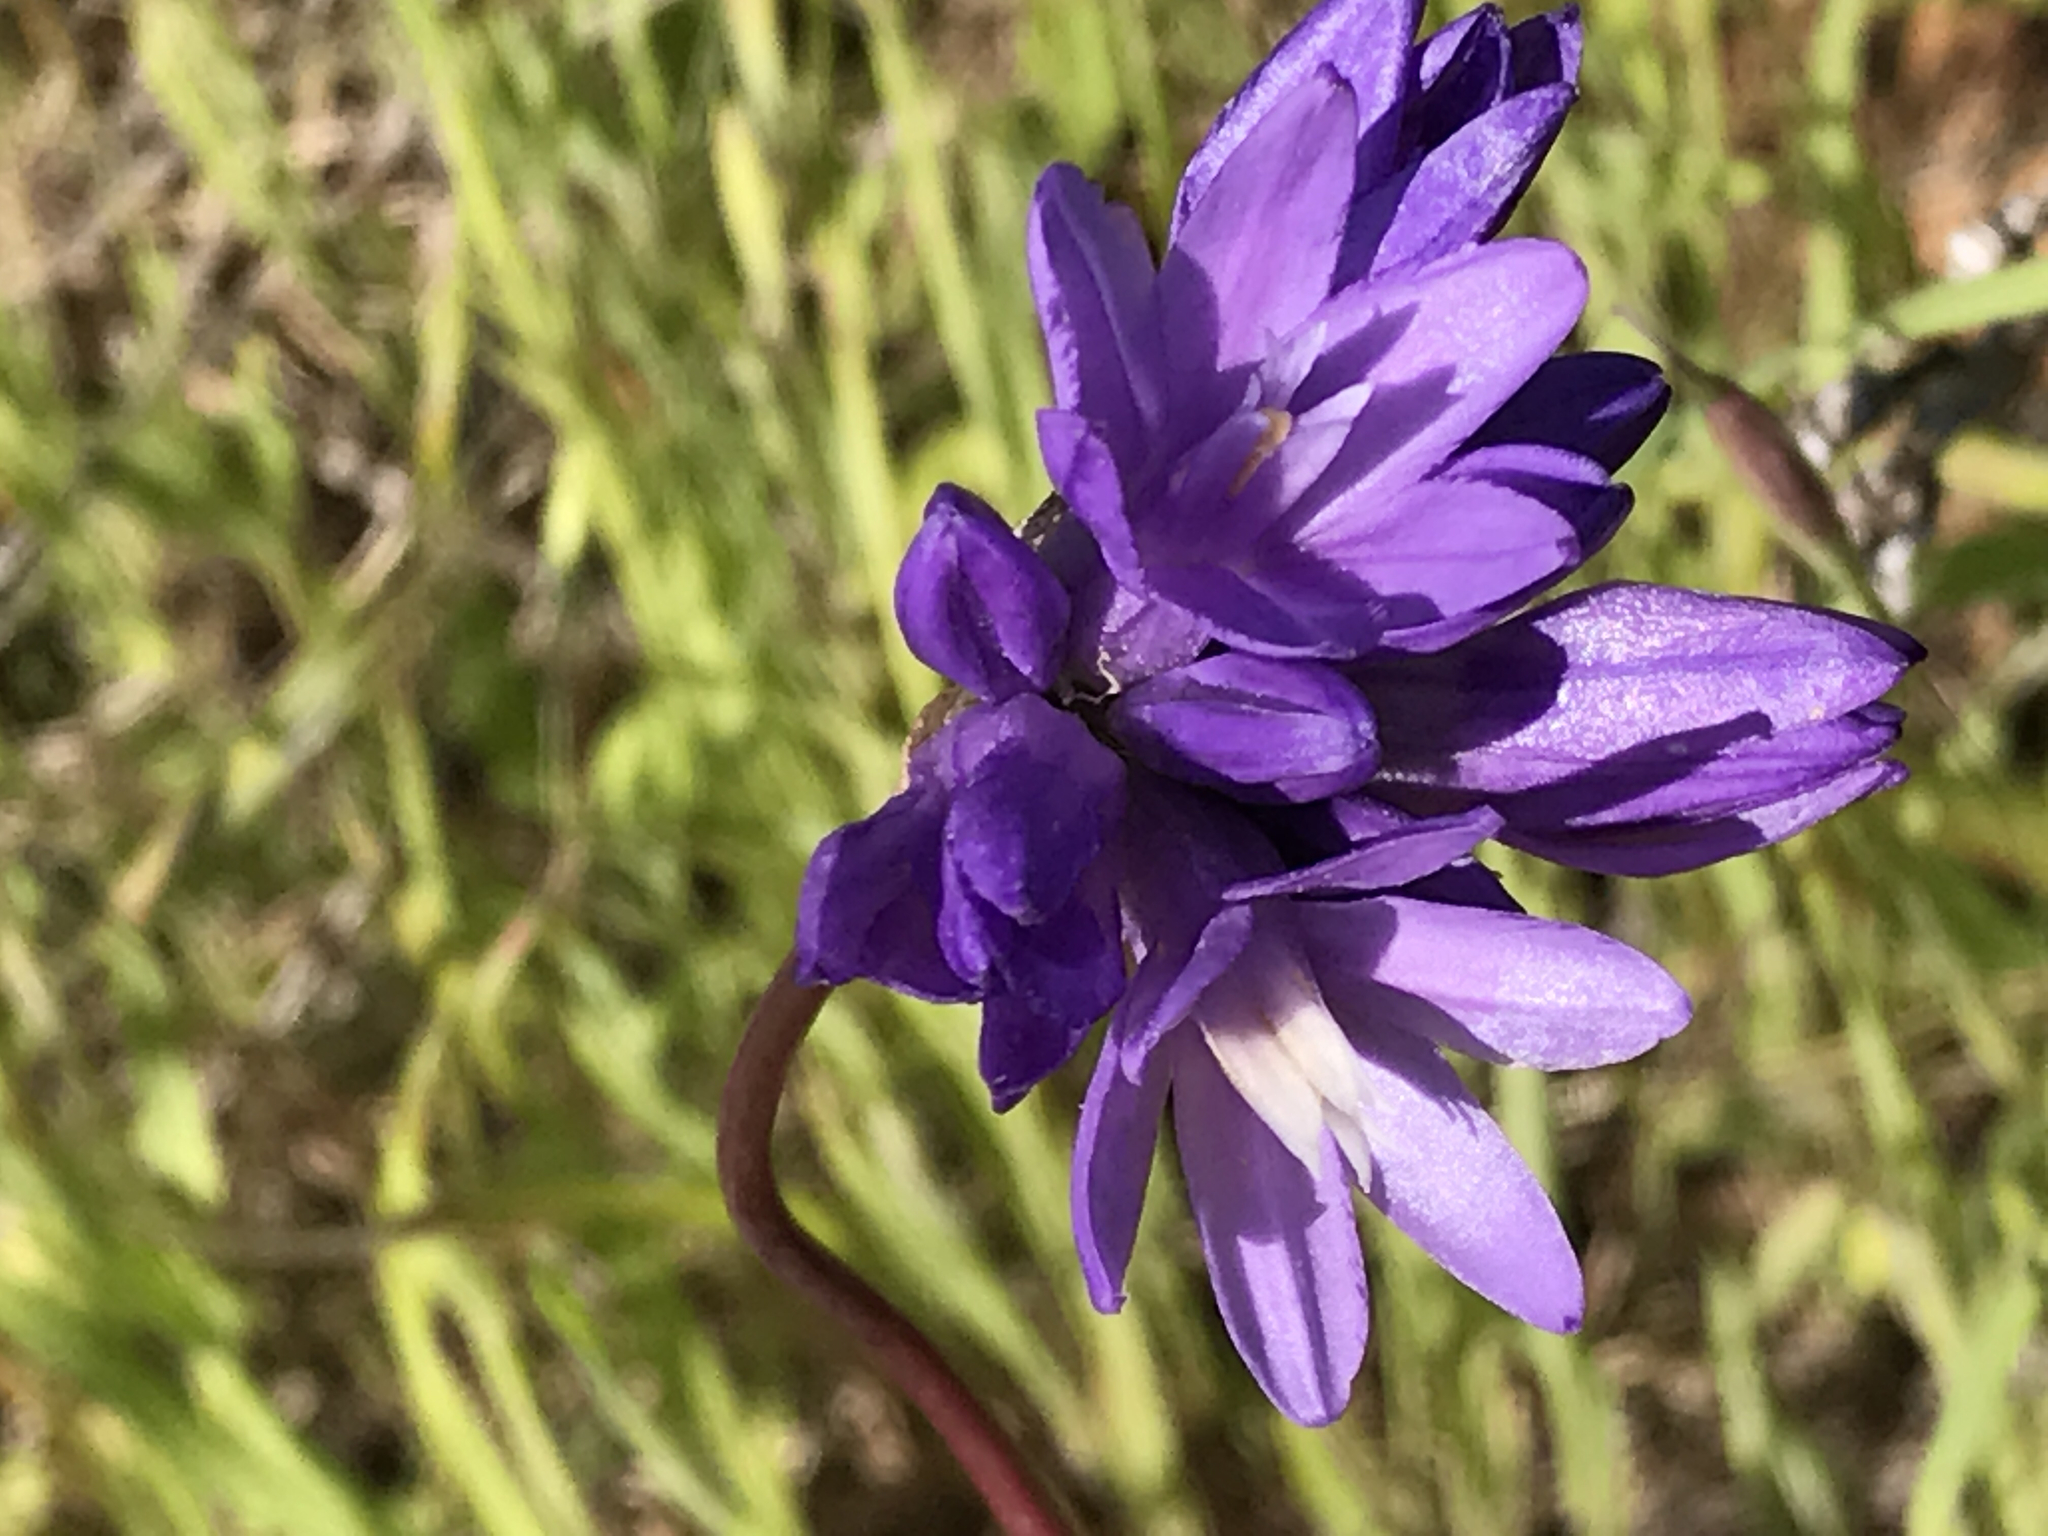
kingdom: Plantae
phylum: Tracheophyta
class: Liliopsida
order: Asparagales
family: Asparagaceae
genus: Dipterostemon
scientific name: Dipterostemon capitatus
